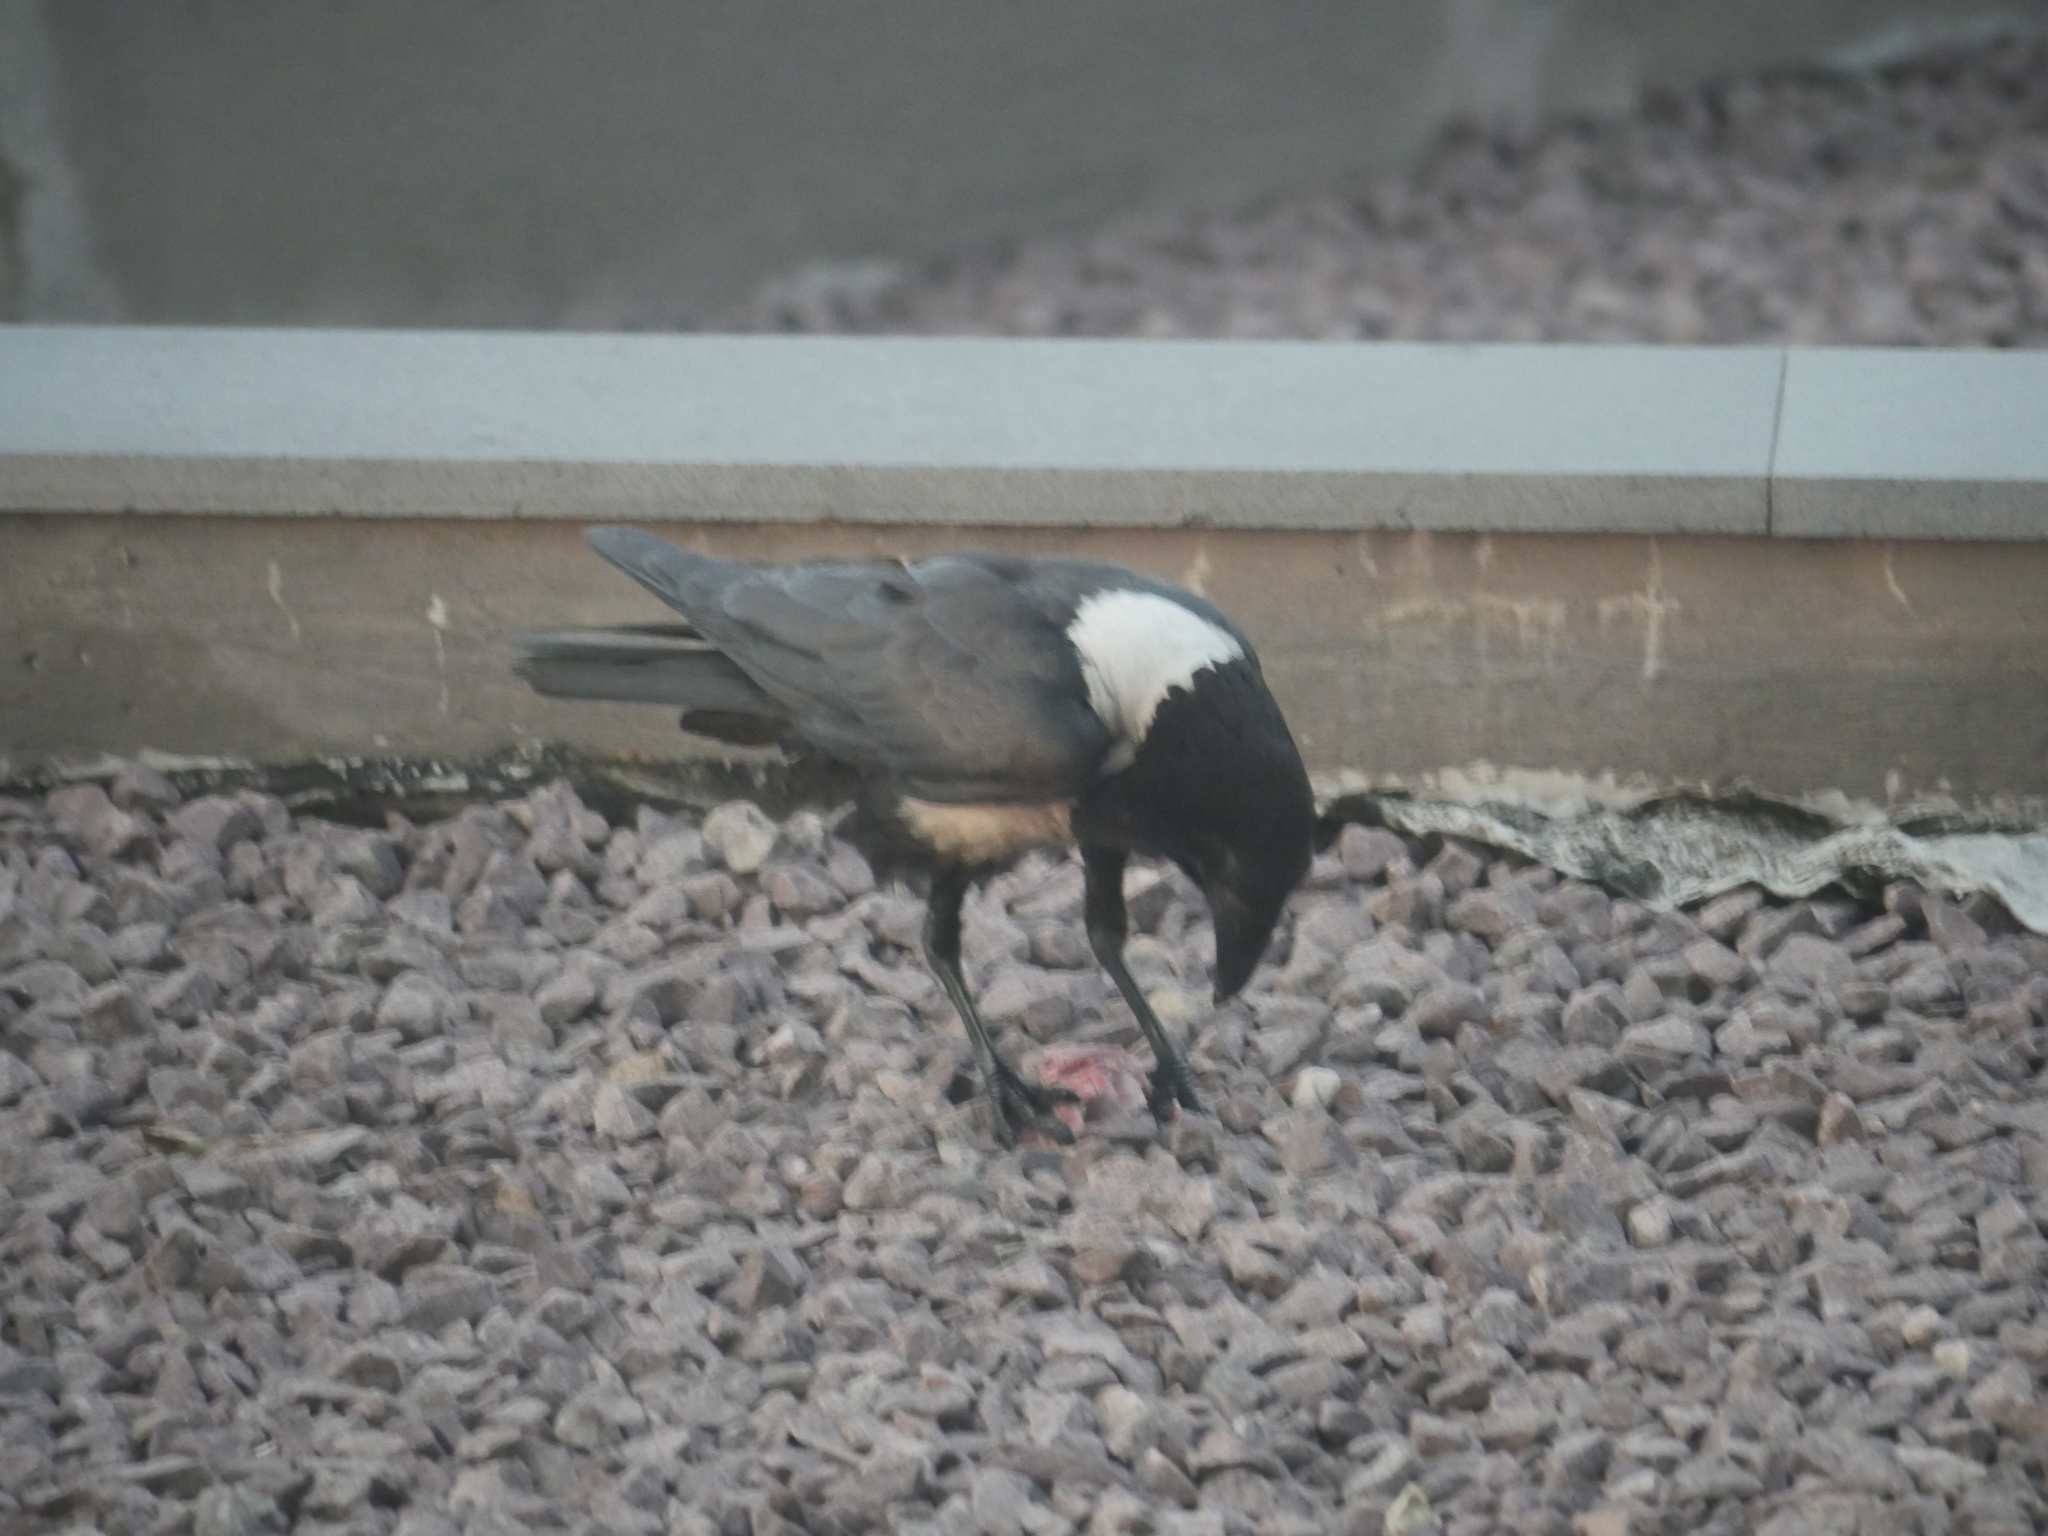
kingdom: Animalia
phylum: Chordata
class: Aves
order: Passeriformes
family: Corvidae
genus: Corvus
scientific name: Corvus albus
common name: Pied crow
